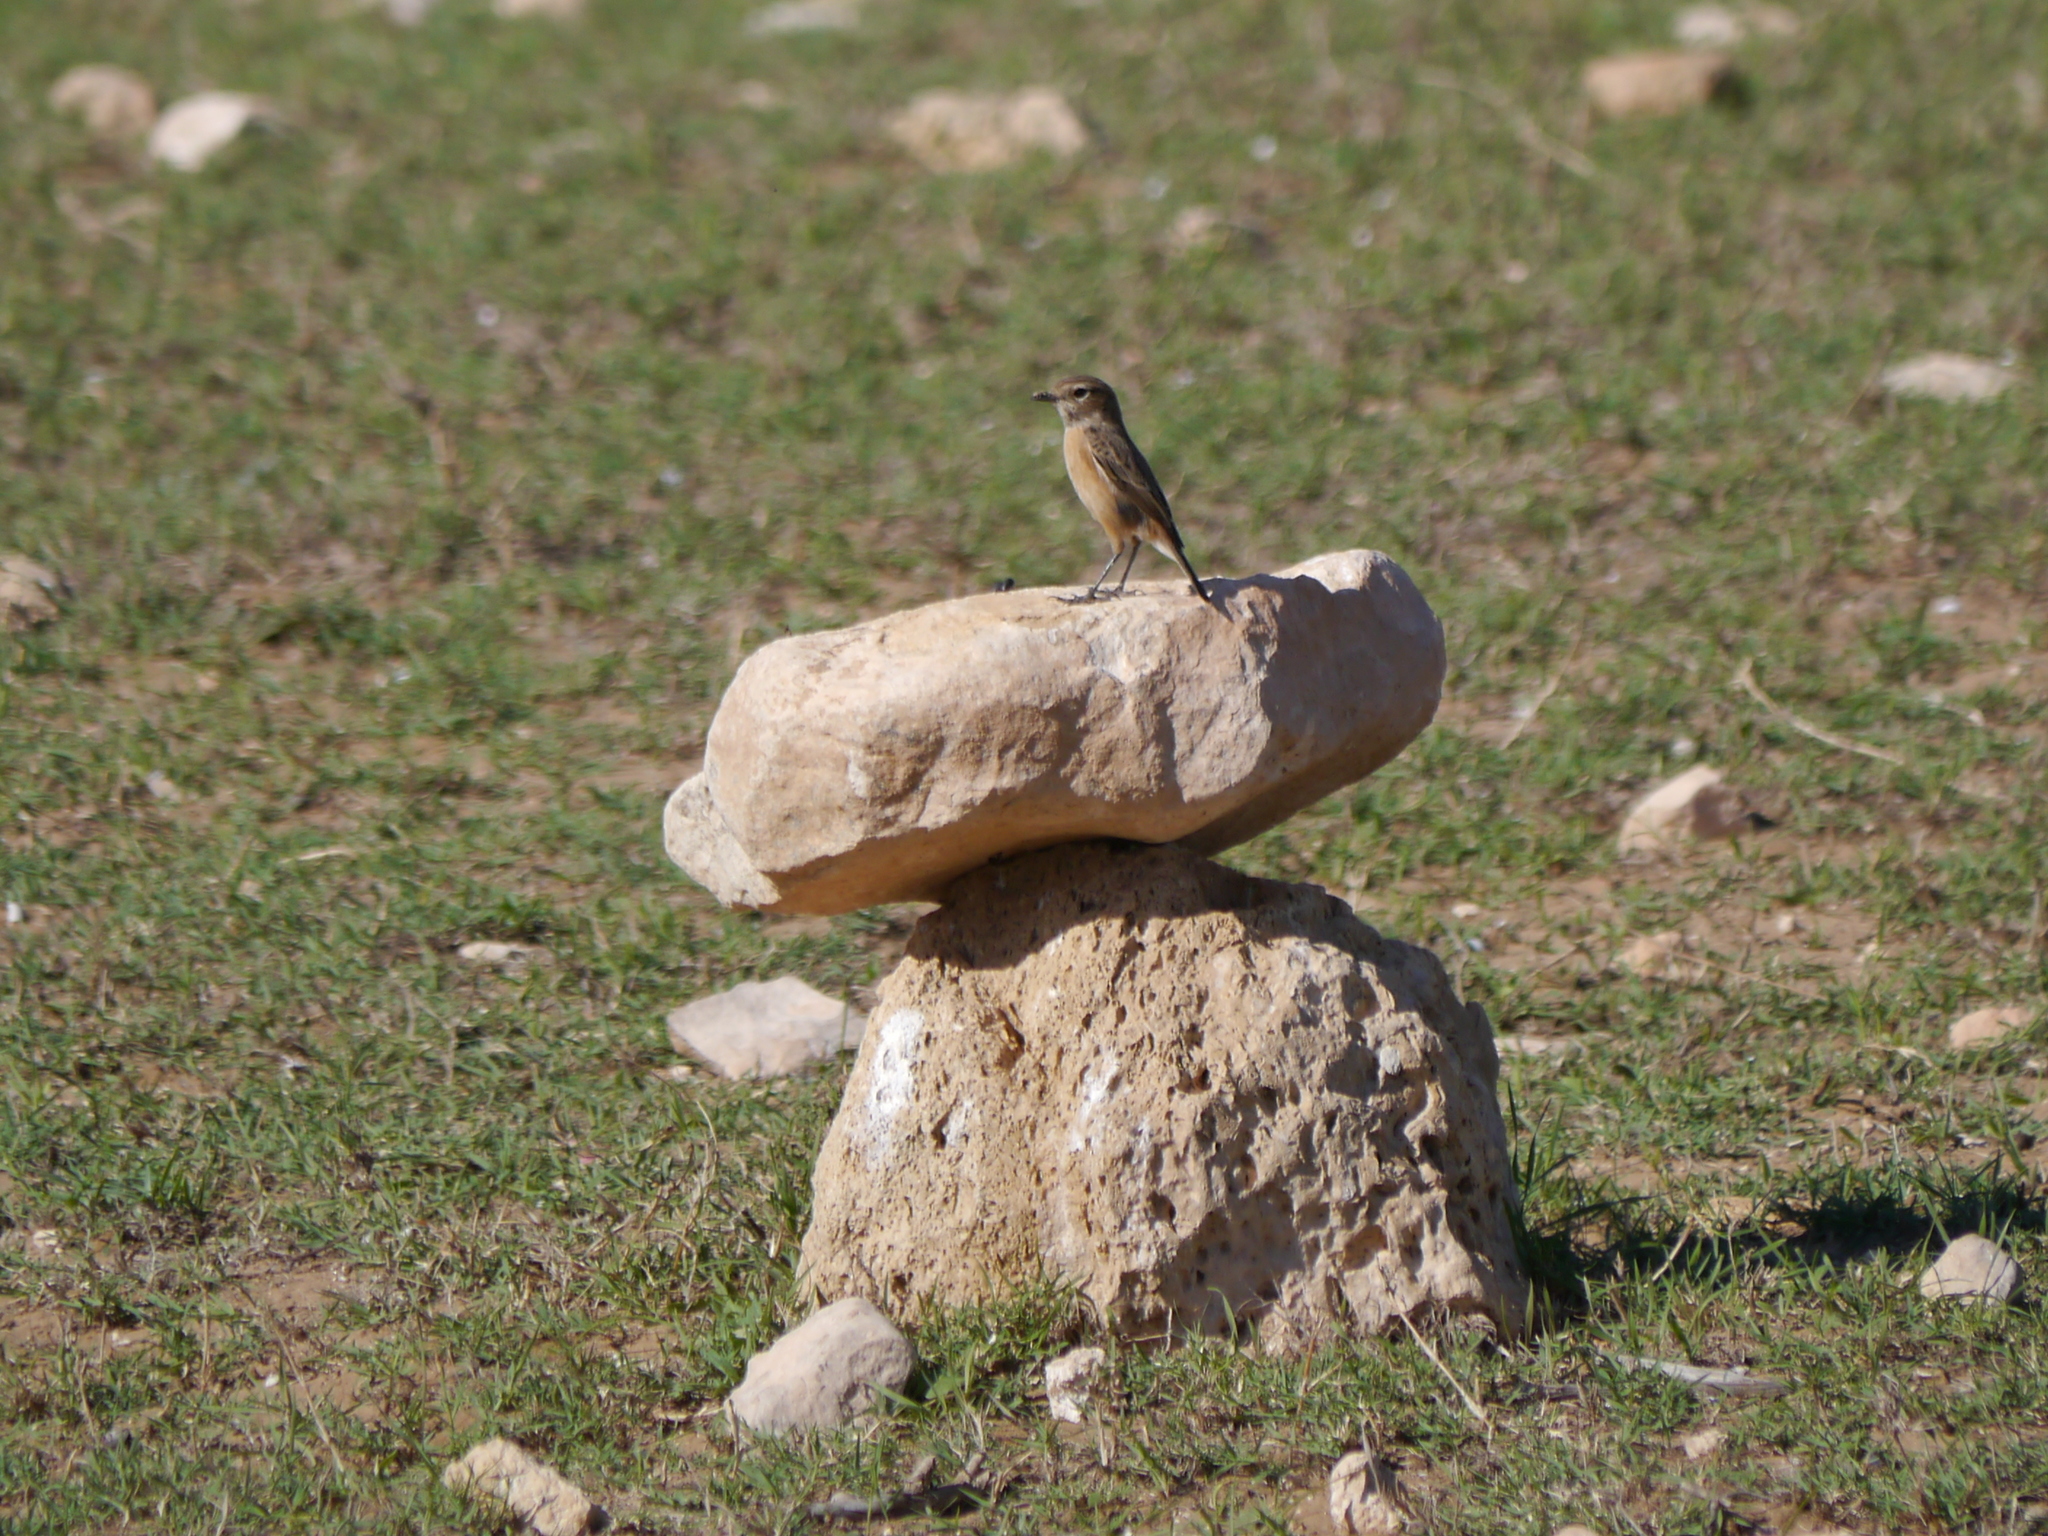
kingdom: Animalia
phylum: Chordata
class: Aves
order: Passeriformes
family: Muscicapidae
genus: Saxicola
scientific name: Saxicola rubicola
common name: European stonechat
